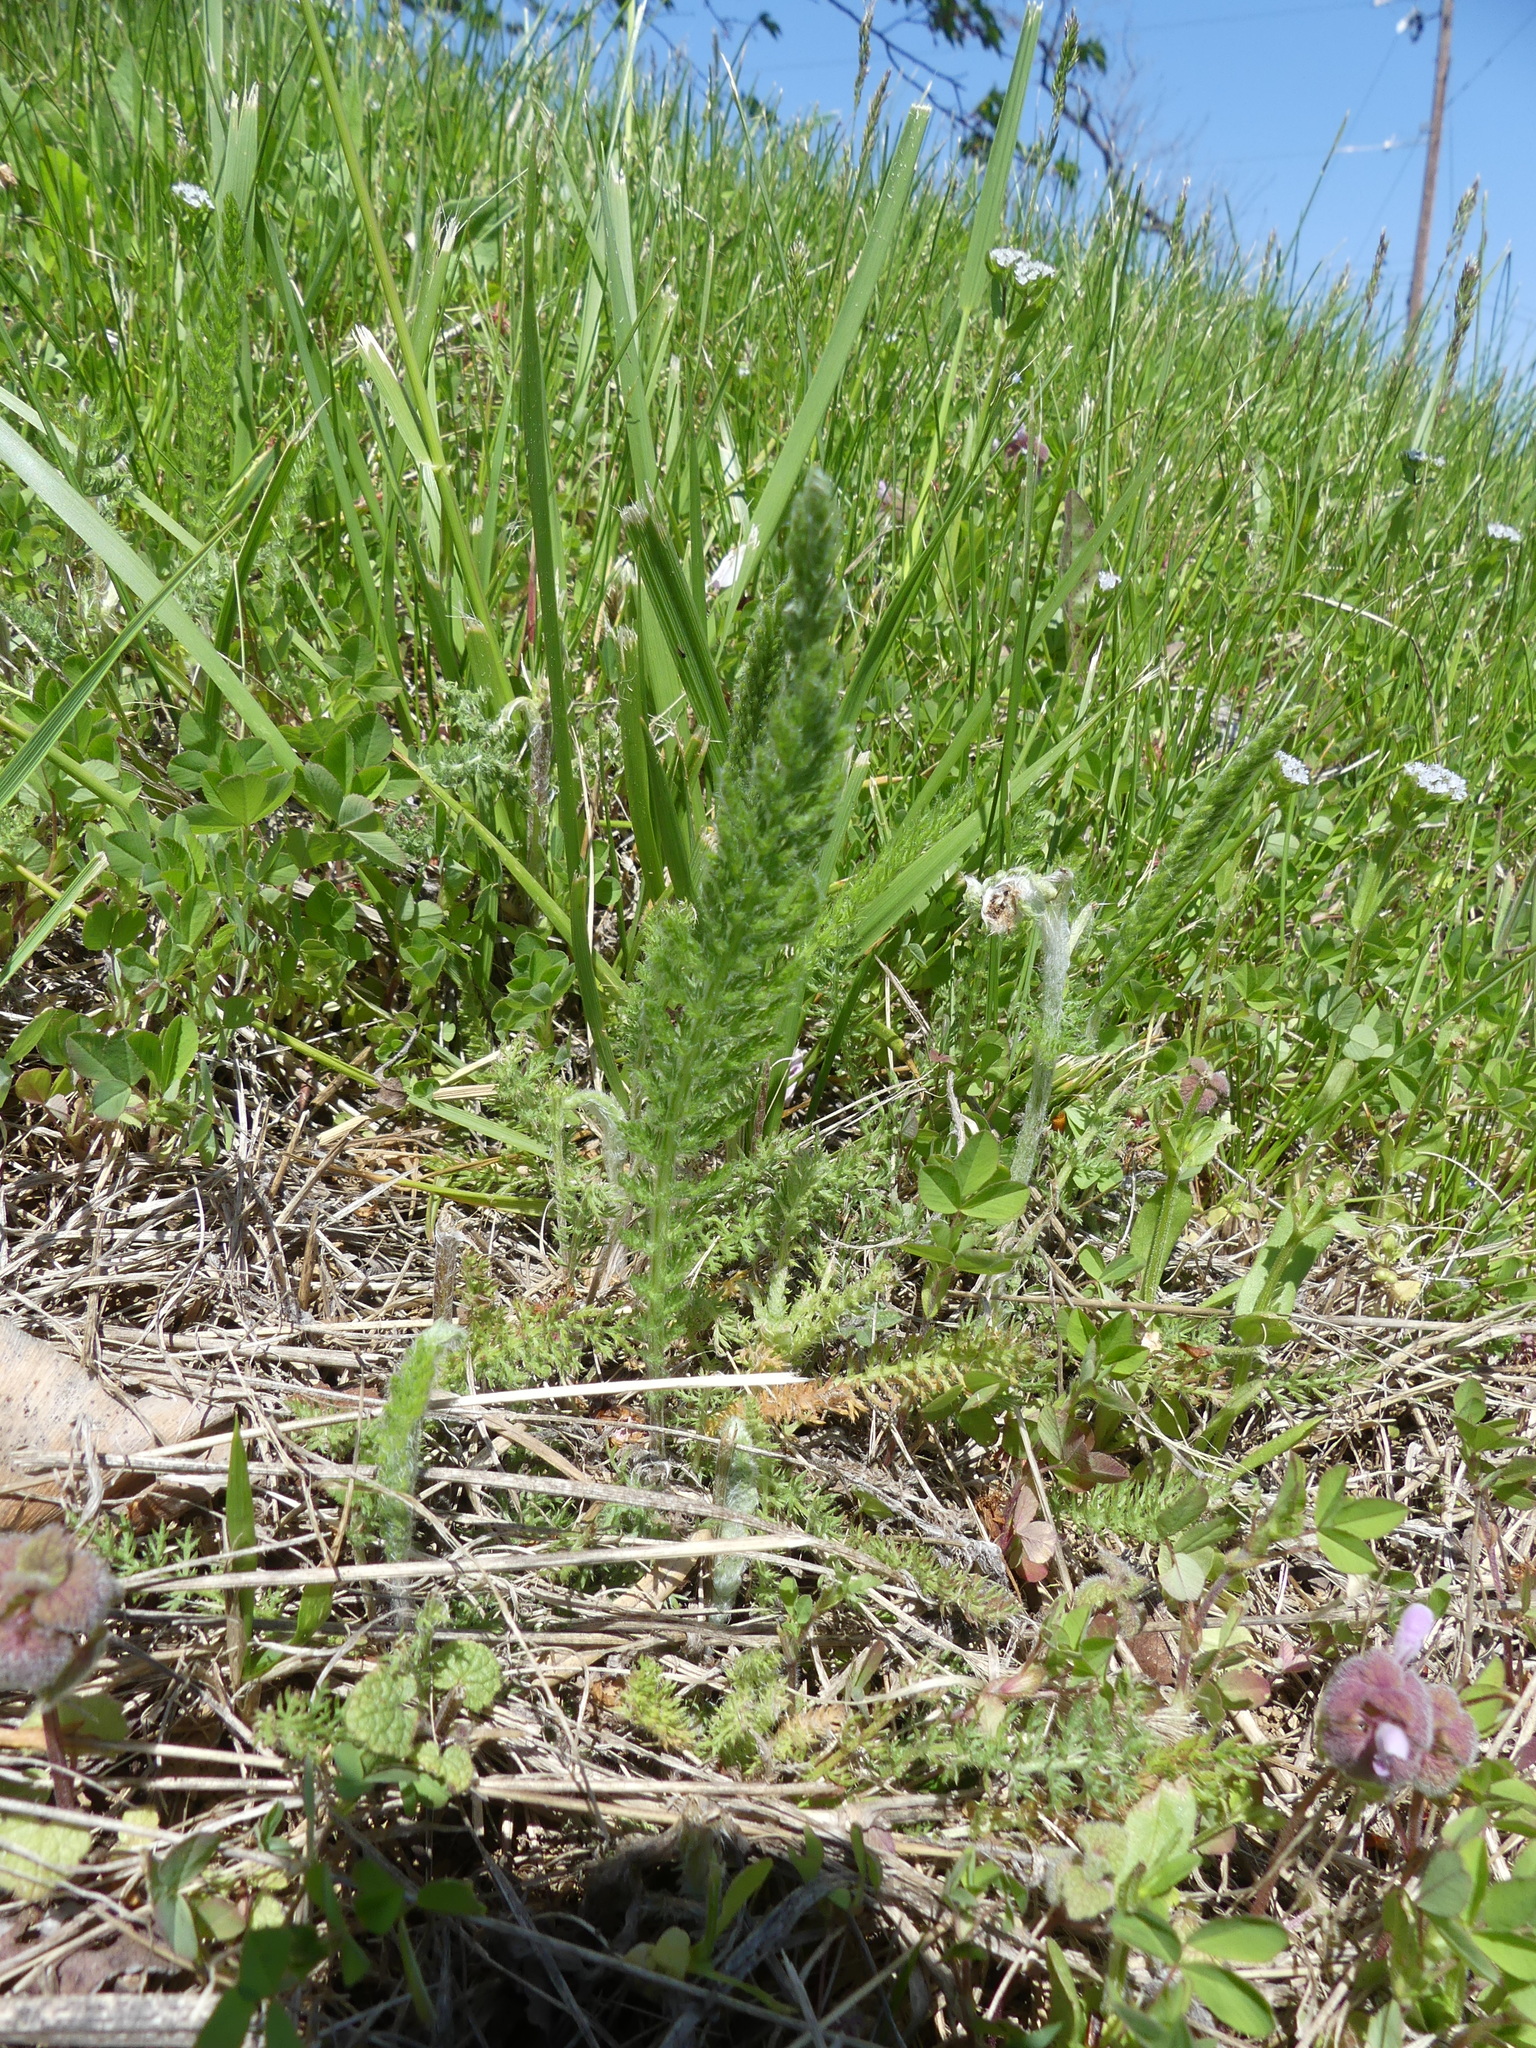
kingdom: Plantae
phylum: Tracheophyta
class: Magnoliopsida
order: Asterales
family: Asteraceae
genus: Achillea
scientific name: Achillea millefolium
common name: Yarrow
